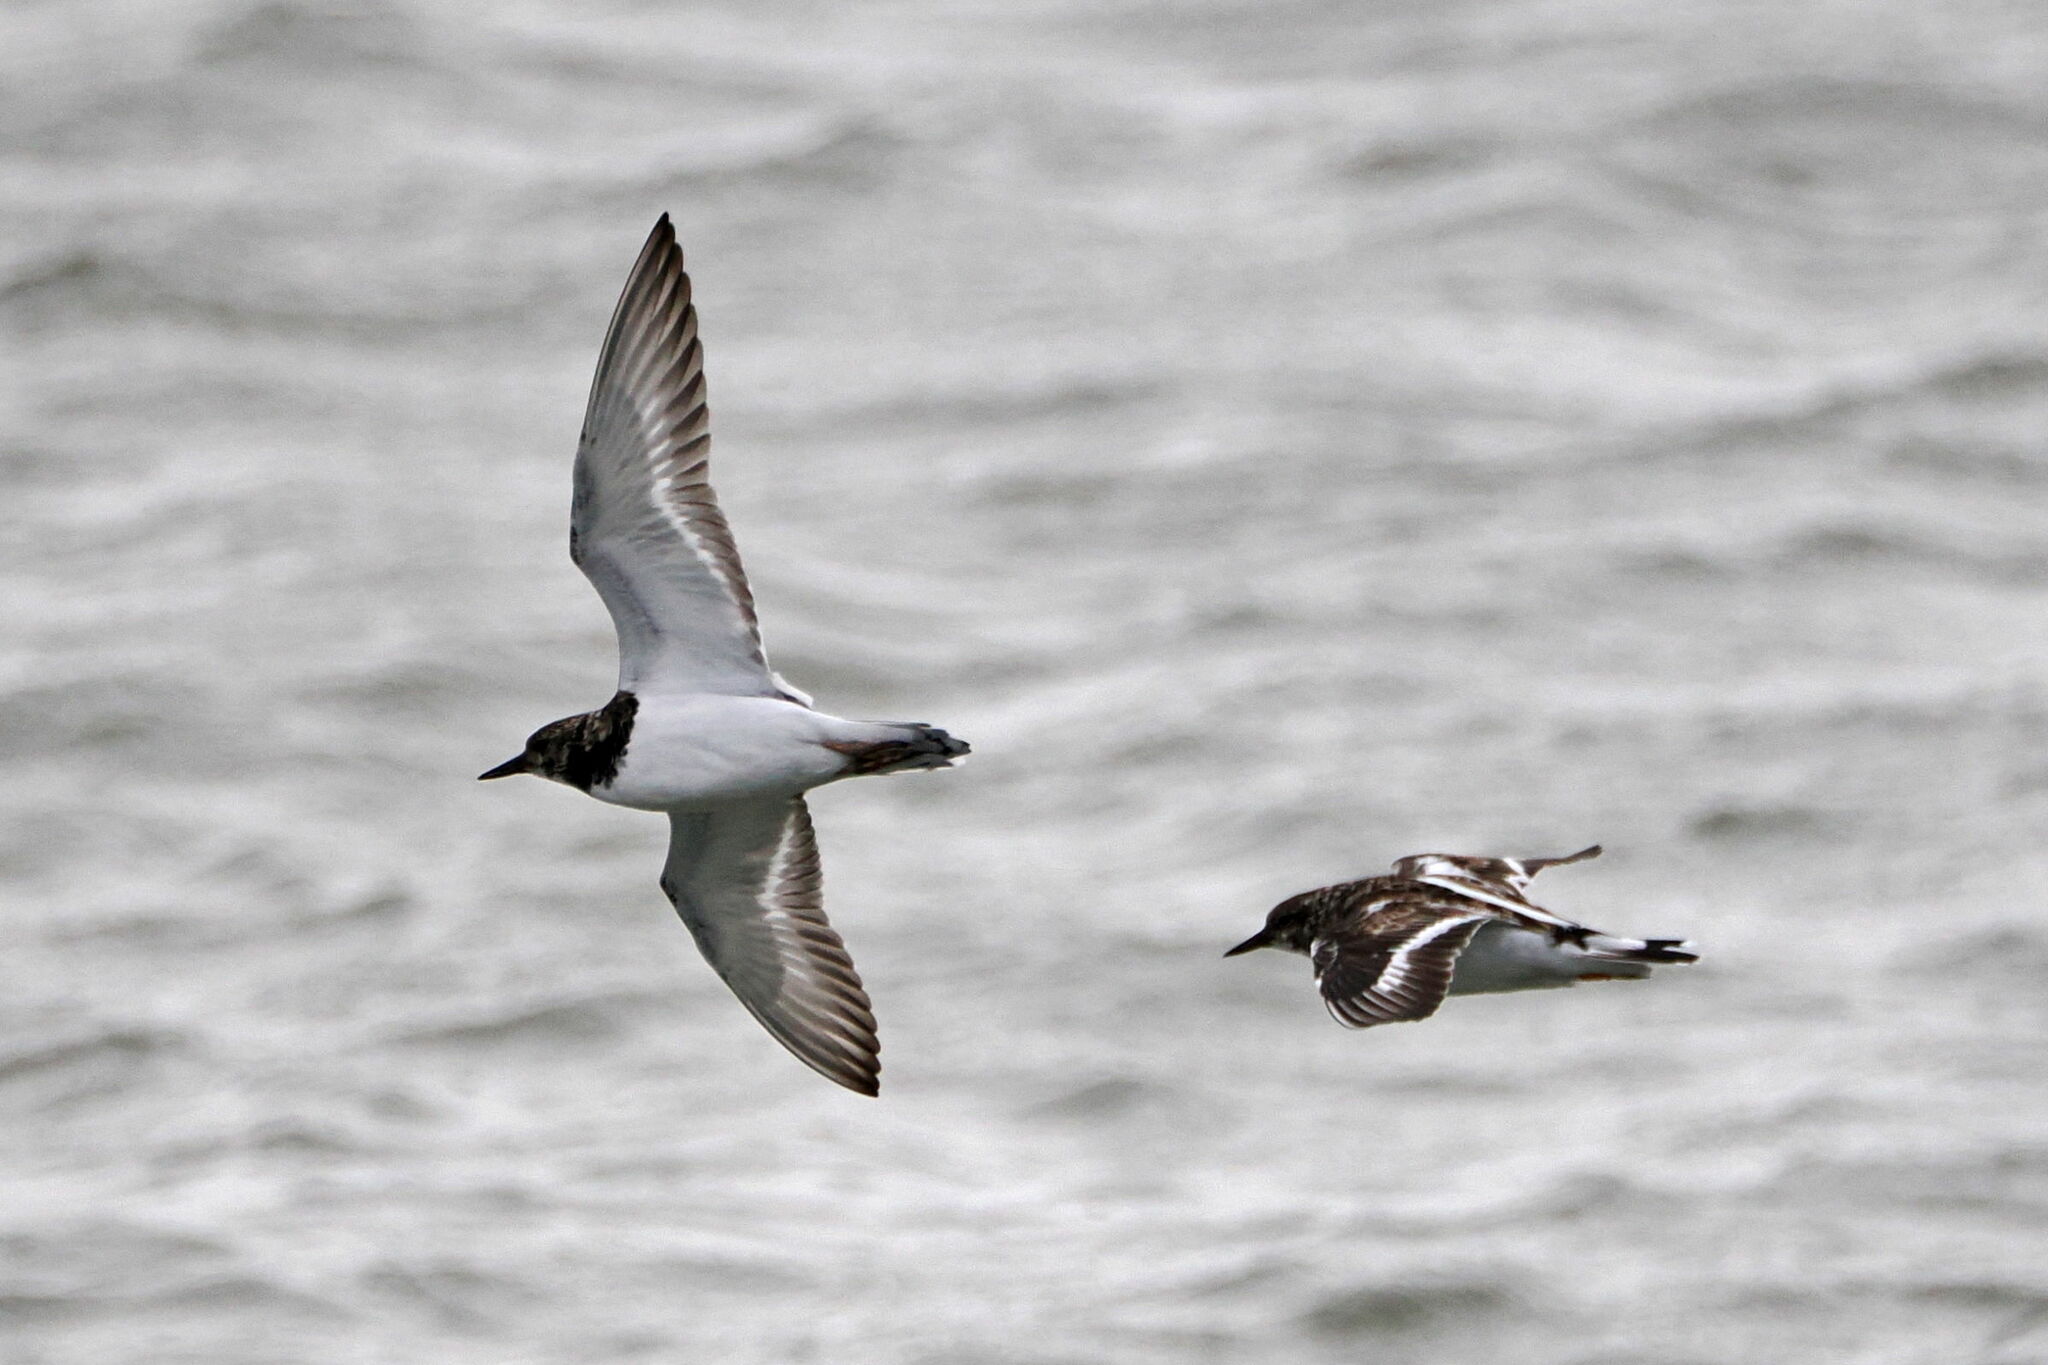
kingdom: Animalia
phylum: Chordata
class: Aves
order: Charadriiformes
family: Scolopacidae
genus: Arenaria
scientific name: Arenaria interpres
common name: Ruddy turnstone
